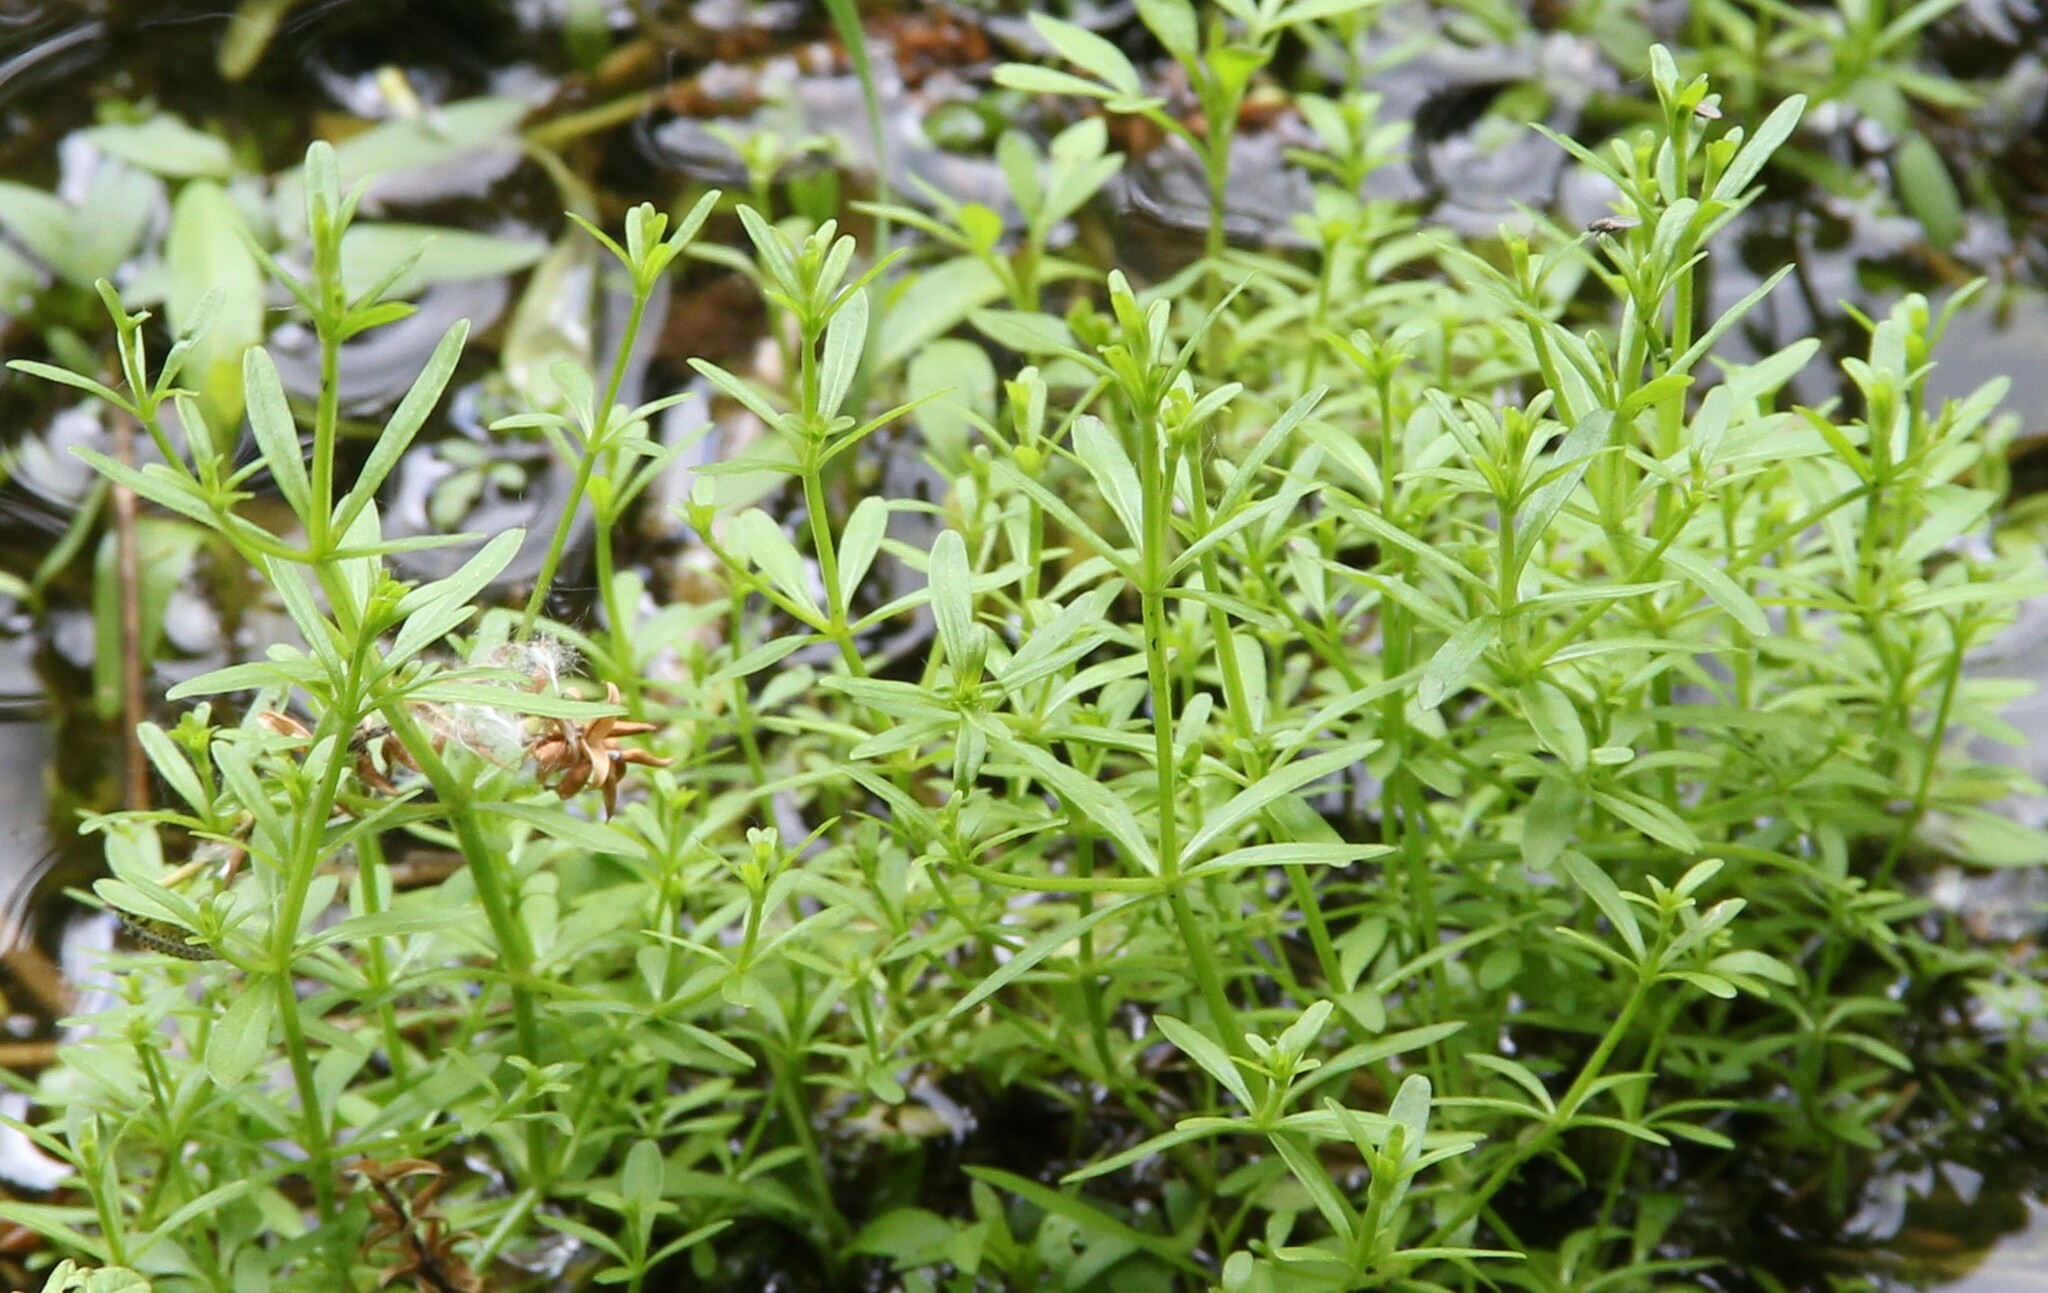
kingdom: Plantae
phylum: Tracheophyta
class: Magnoliopsida
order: Gentianales
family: Rubiaceae
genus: Galium
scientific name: Galium palustre
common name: Common marsh-bedstraw
